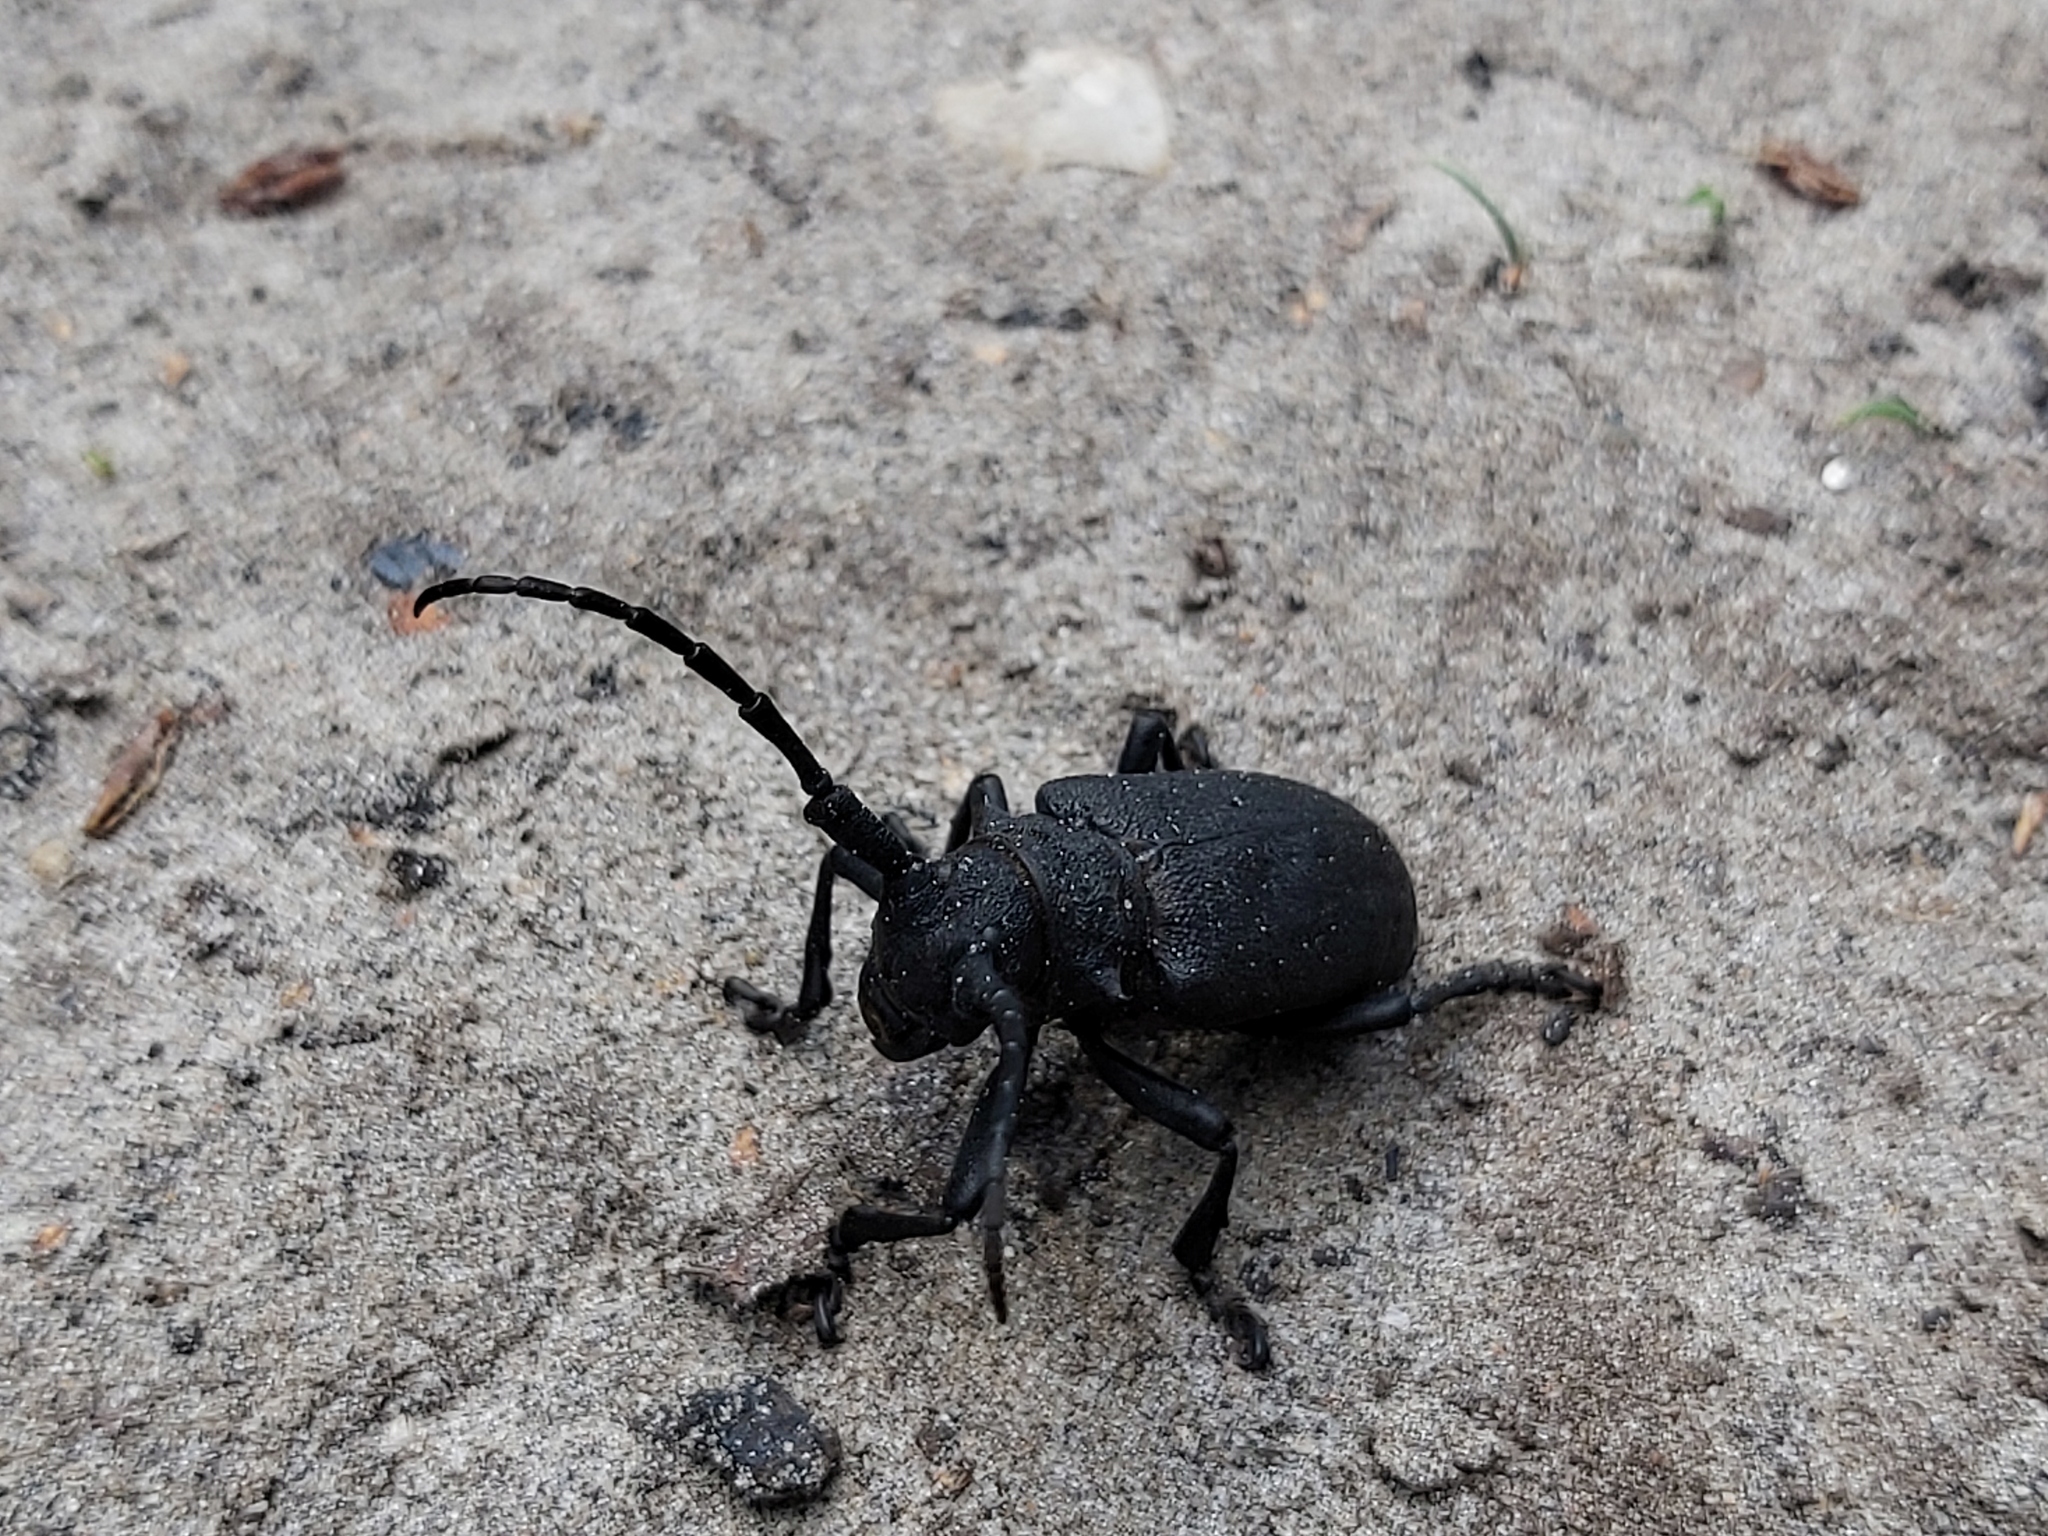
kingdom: Animalia
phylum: Arthropoda
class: Insecta
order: Coleoptera
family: Cerambycidae
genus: Lamia
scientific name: Lamia textor
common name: Weaver beetle
